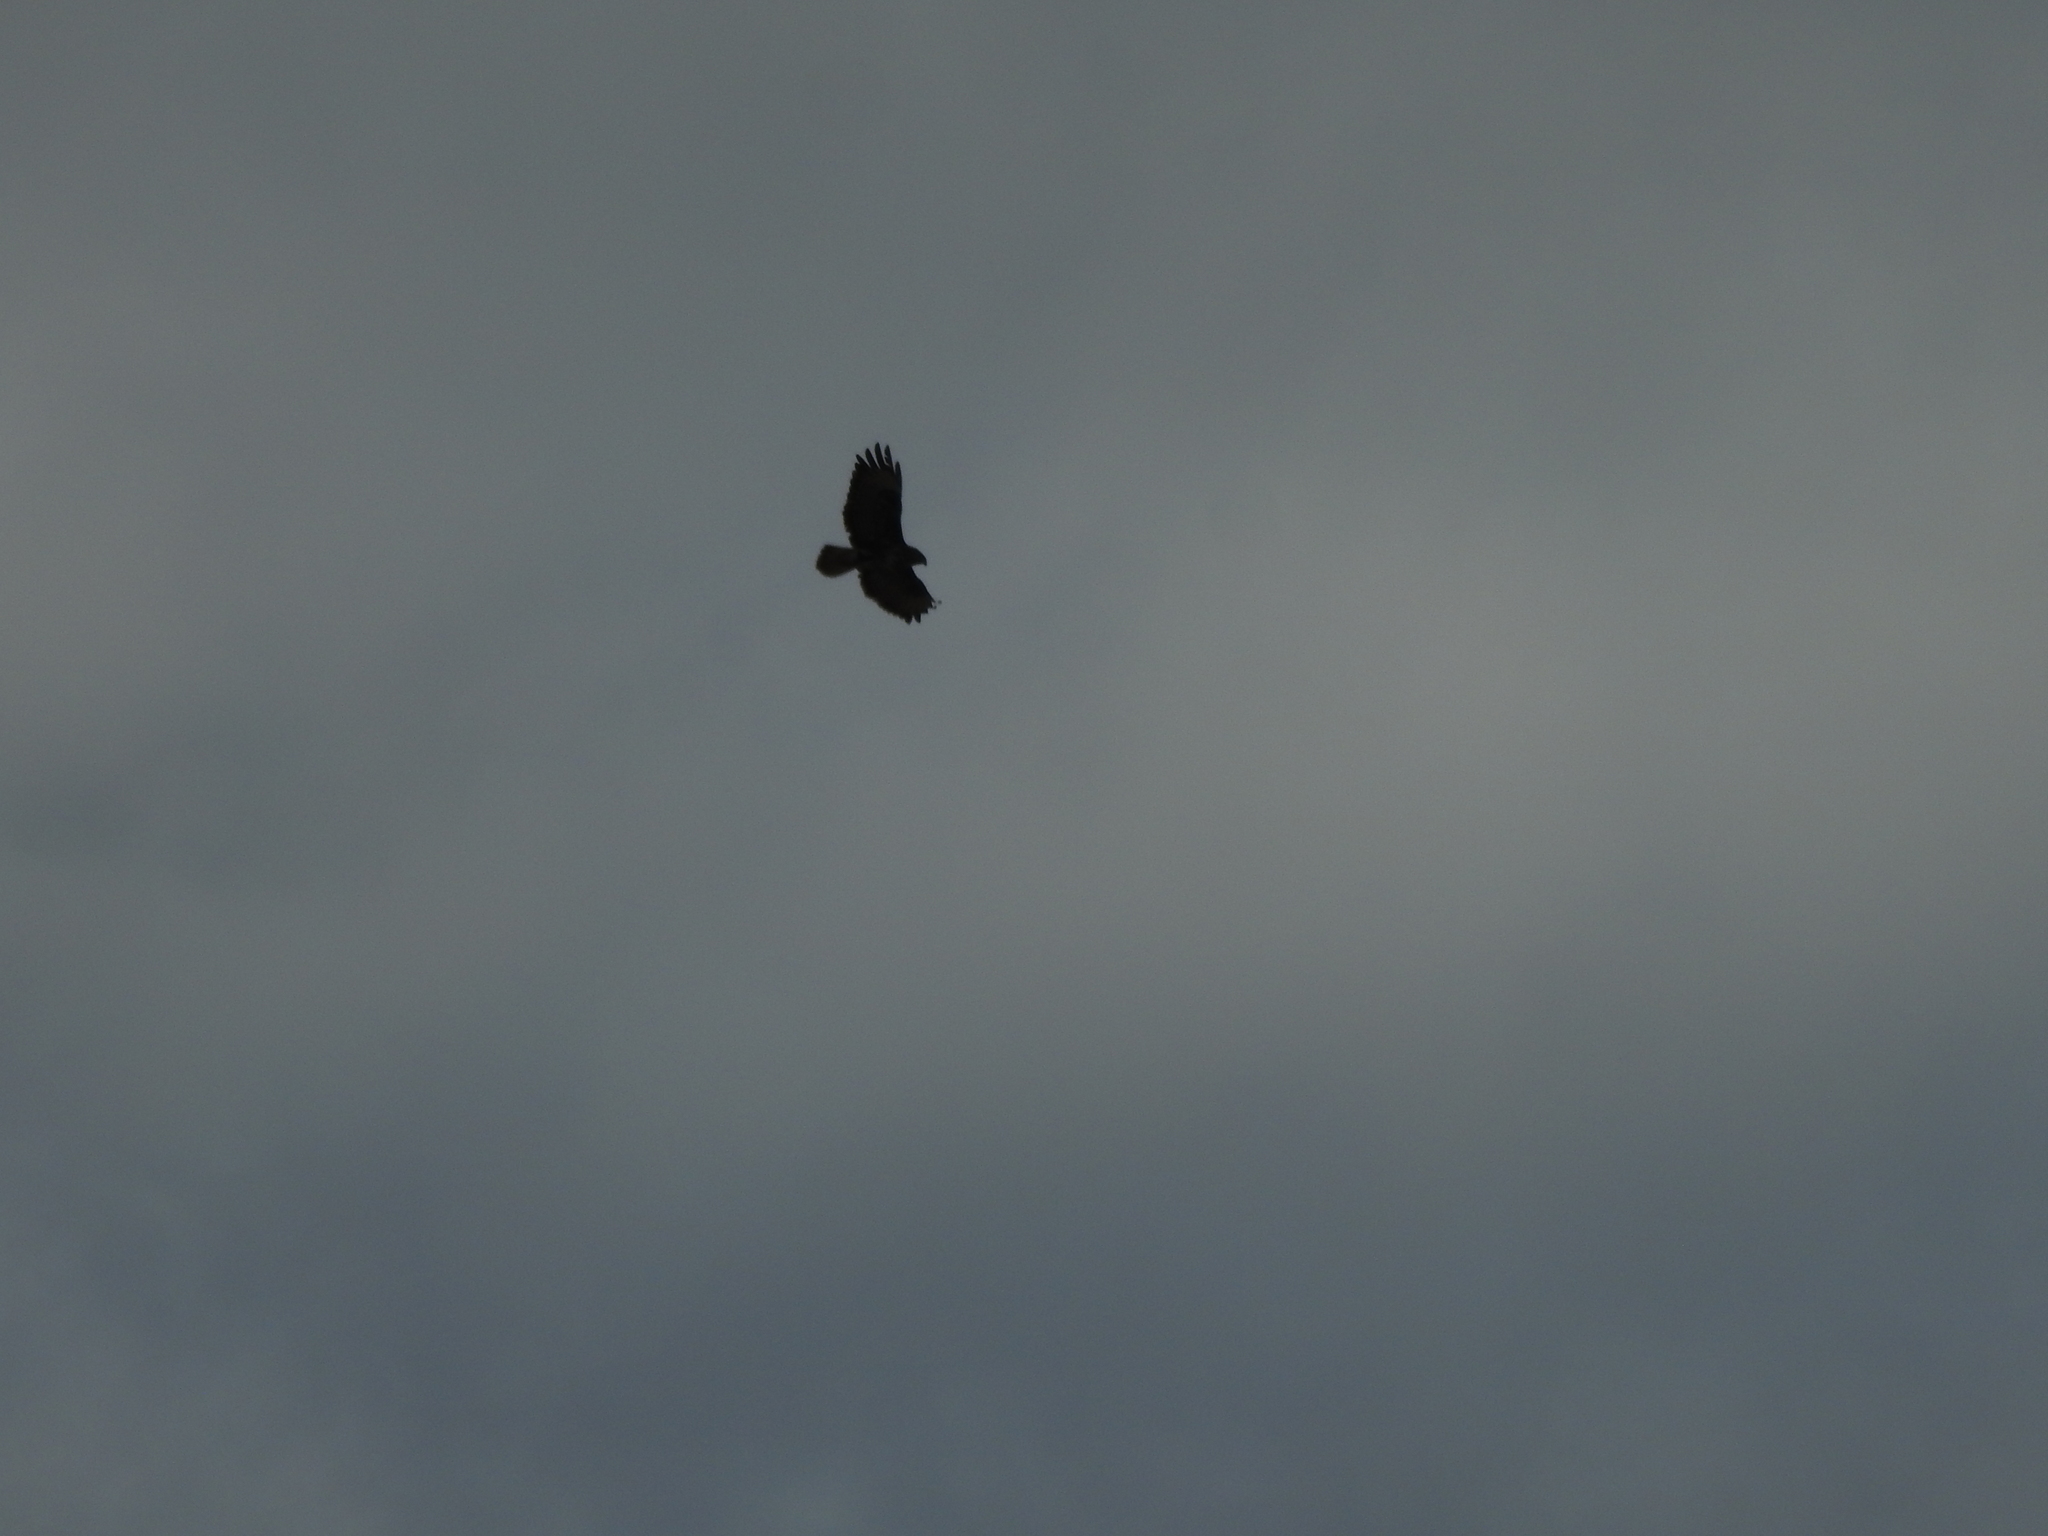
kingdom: Animalia
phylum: Chordata
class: Aves
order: Accipitriformes
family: Accipitridae
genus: Buteo
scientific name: Buteo buteo
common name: Common buzzard
